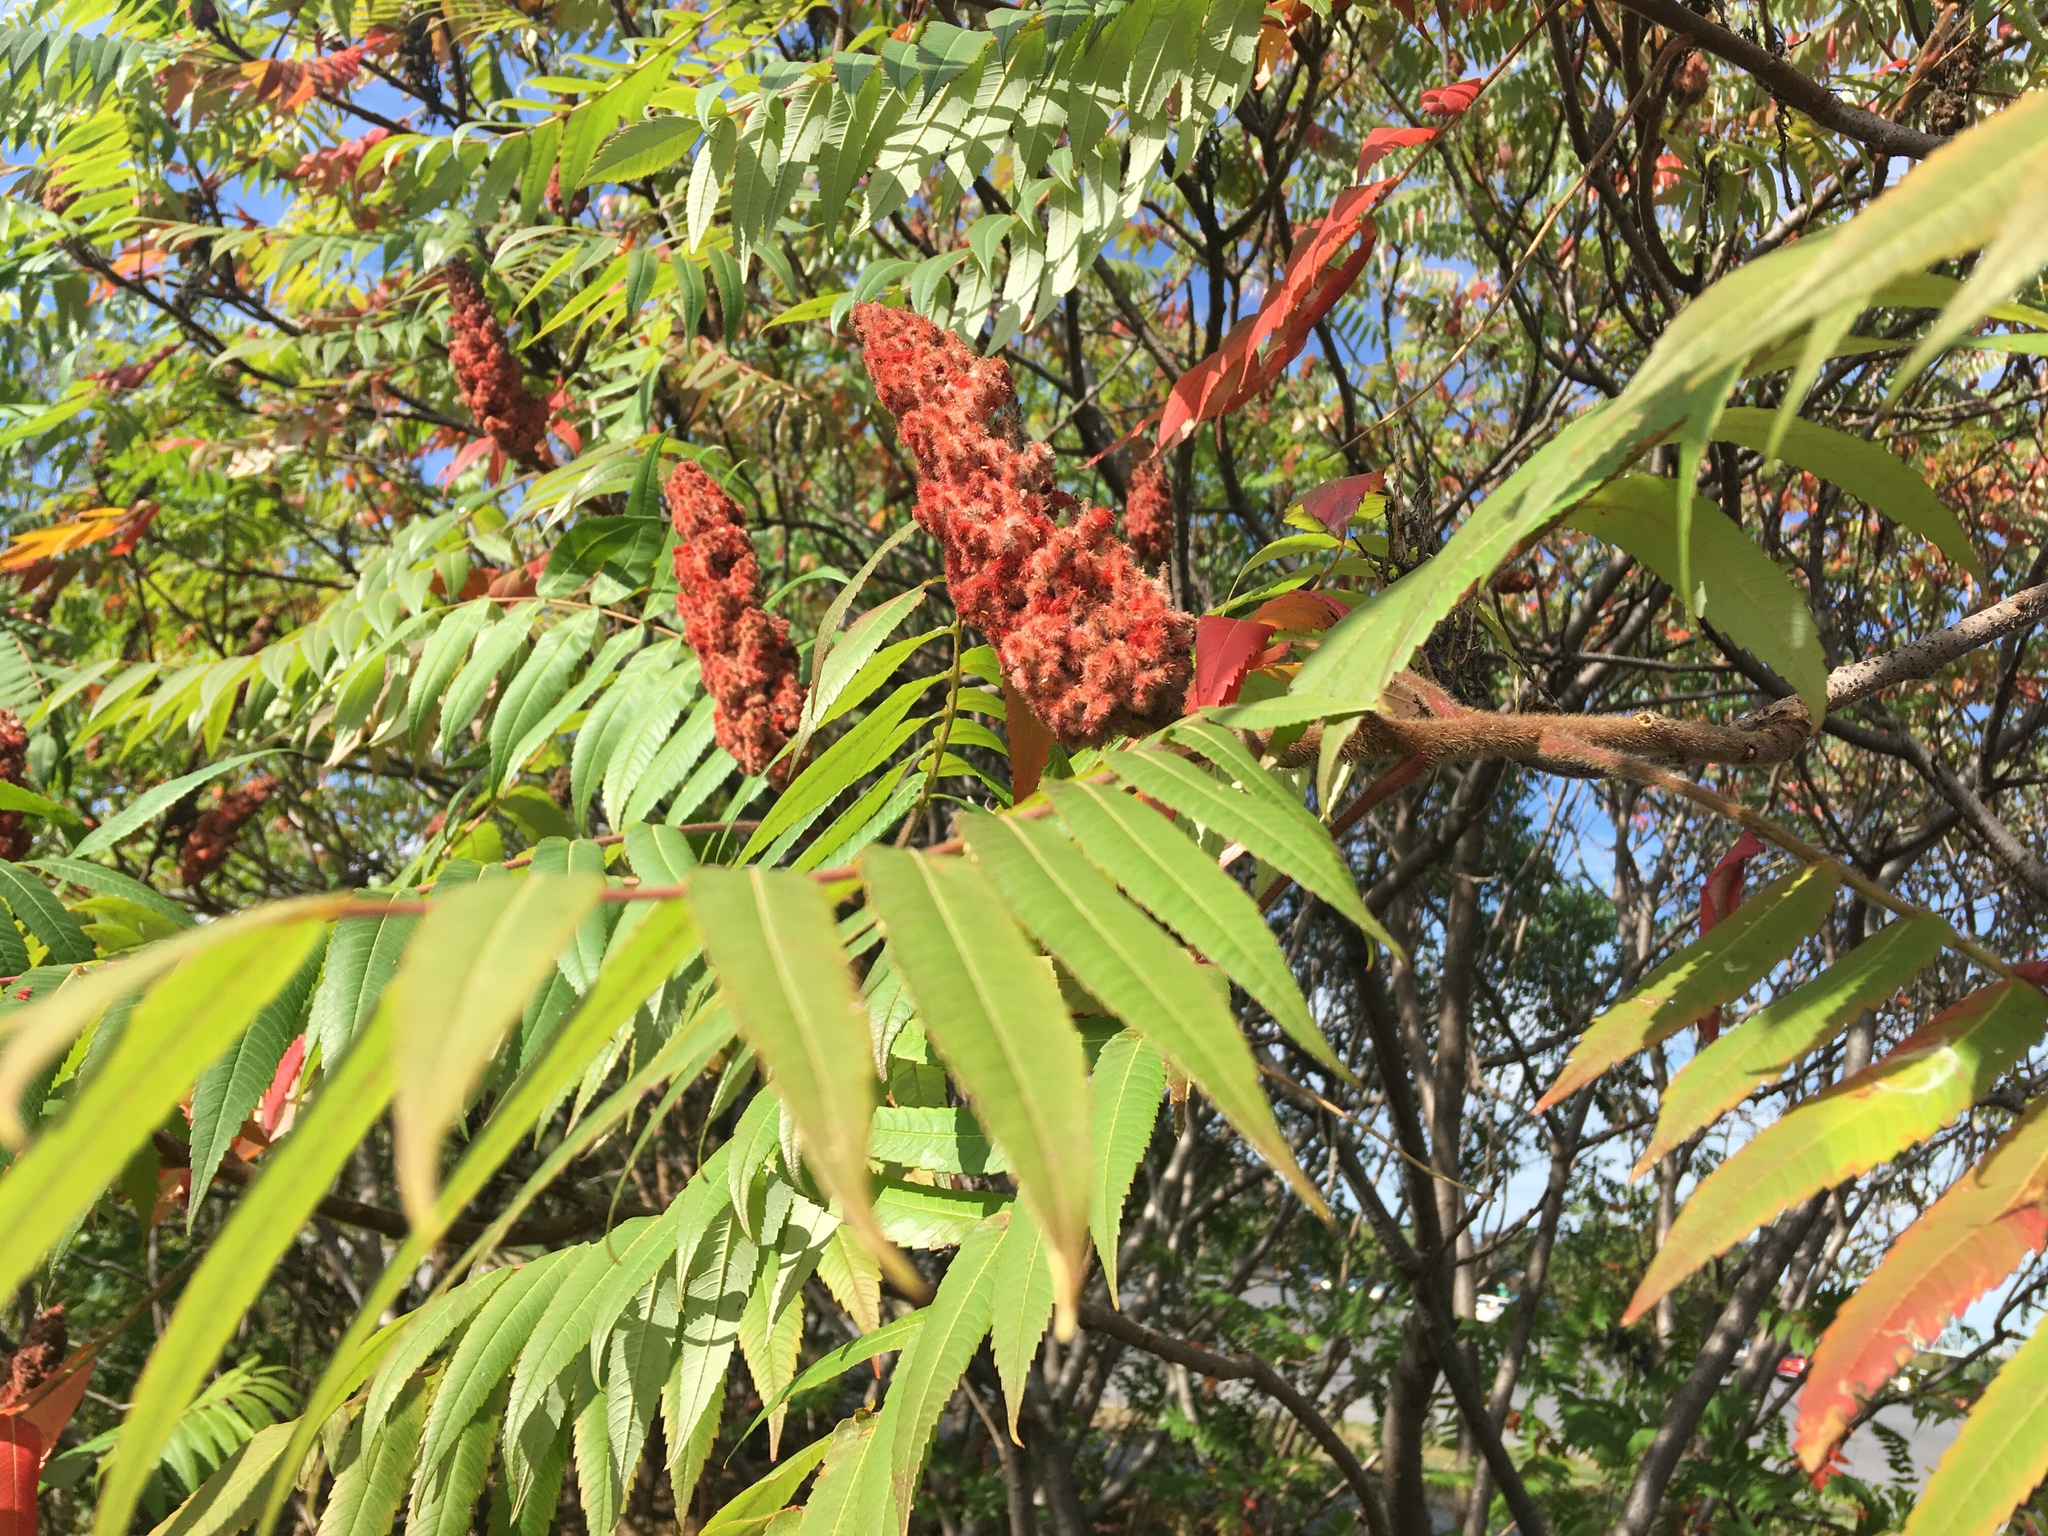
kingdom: Plantae
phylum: Tracheophyta
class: Magnoliopsida
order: Sapindales
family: Anacardiaceae
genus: Rhus
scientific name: Rhus typhina
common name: Staghorn sumac
